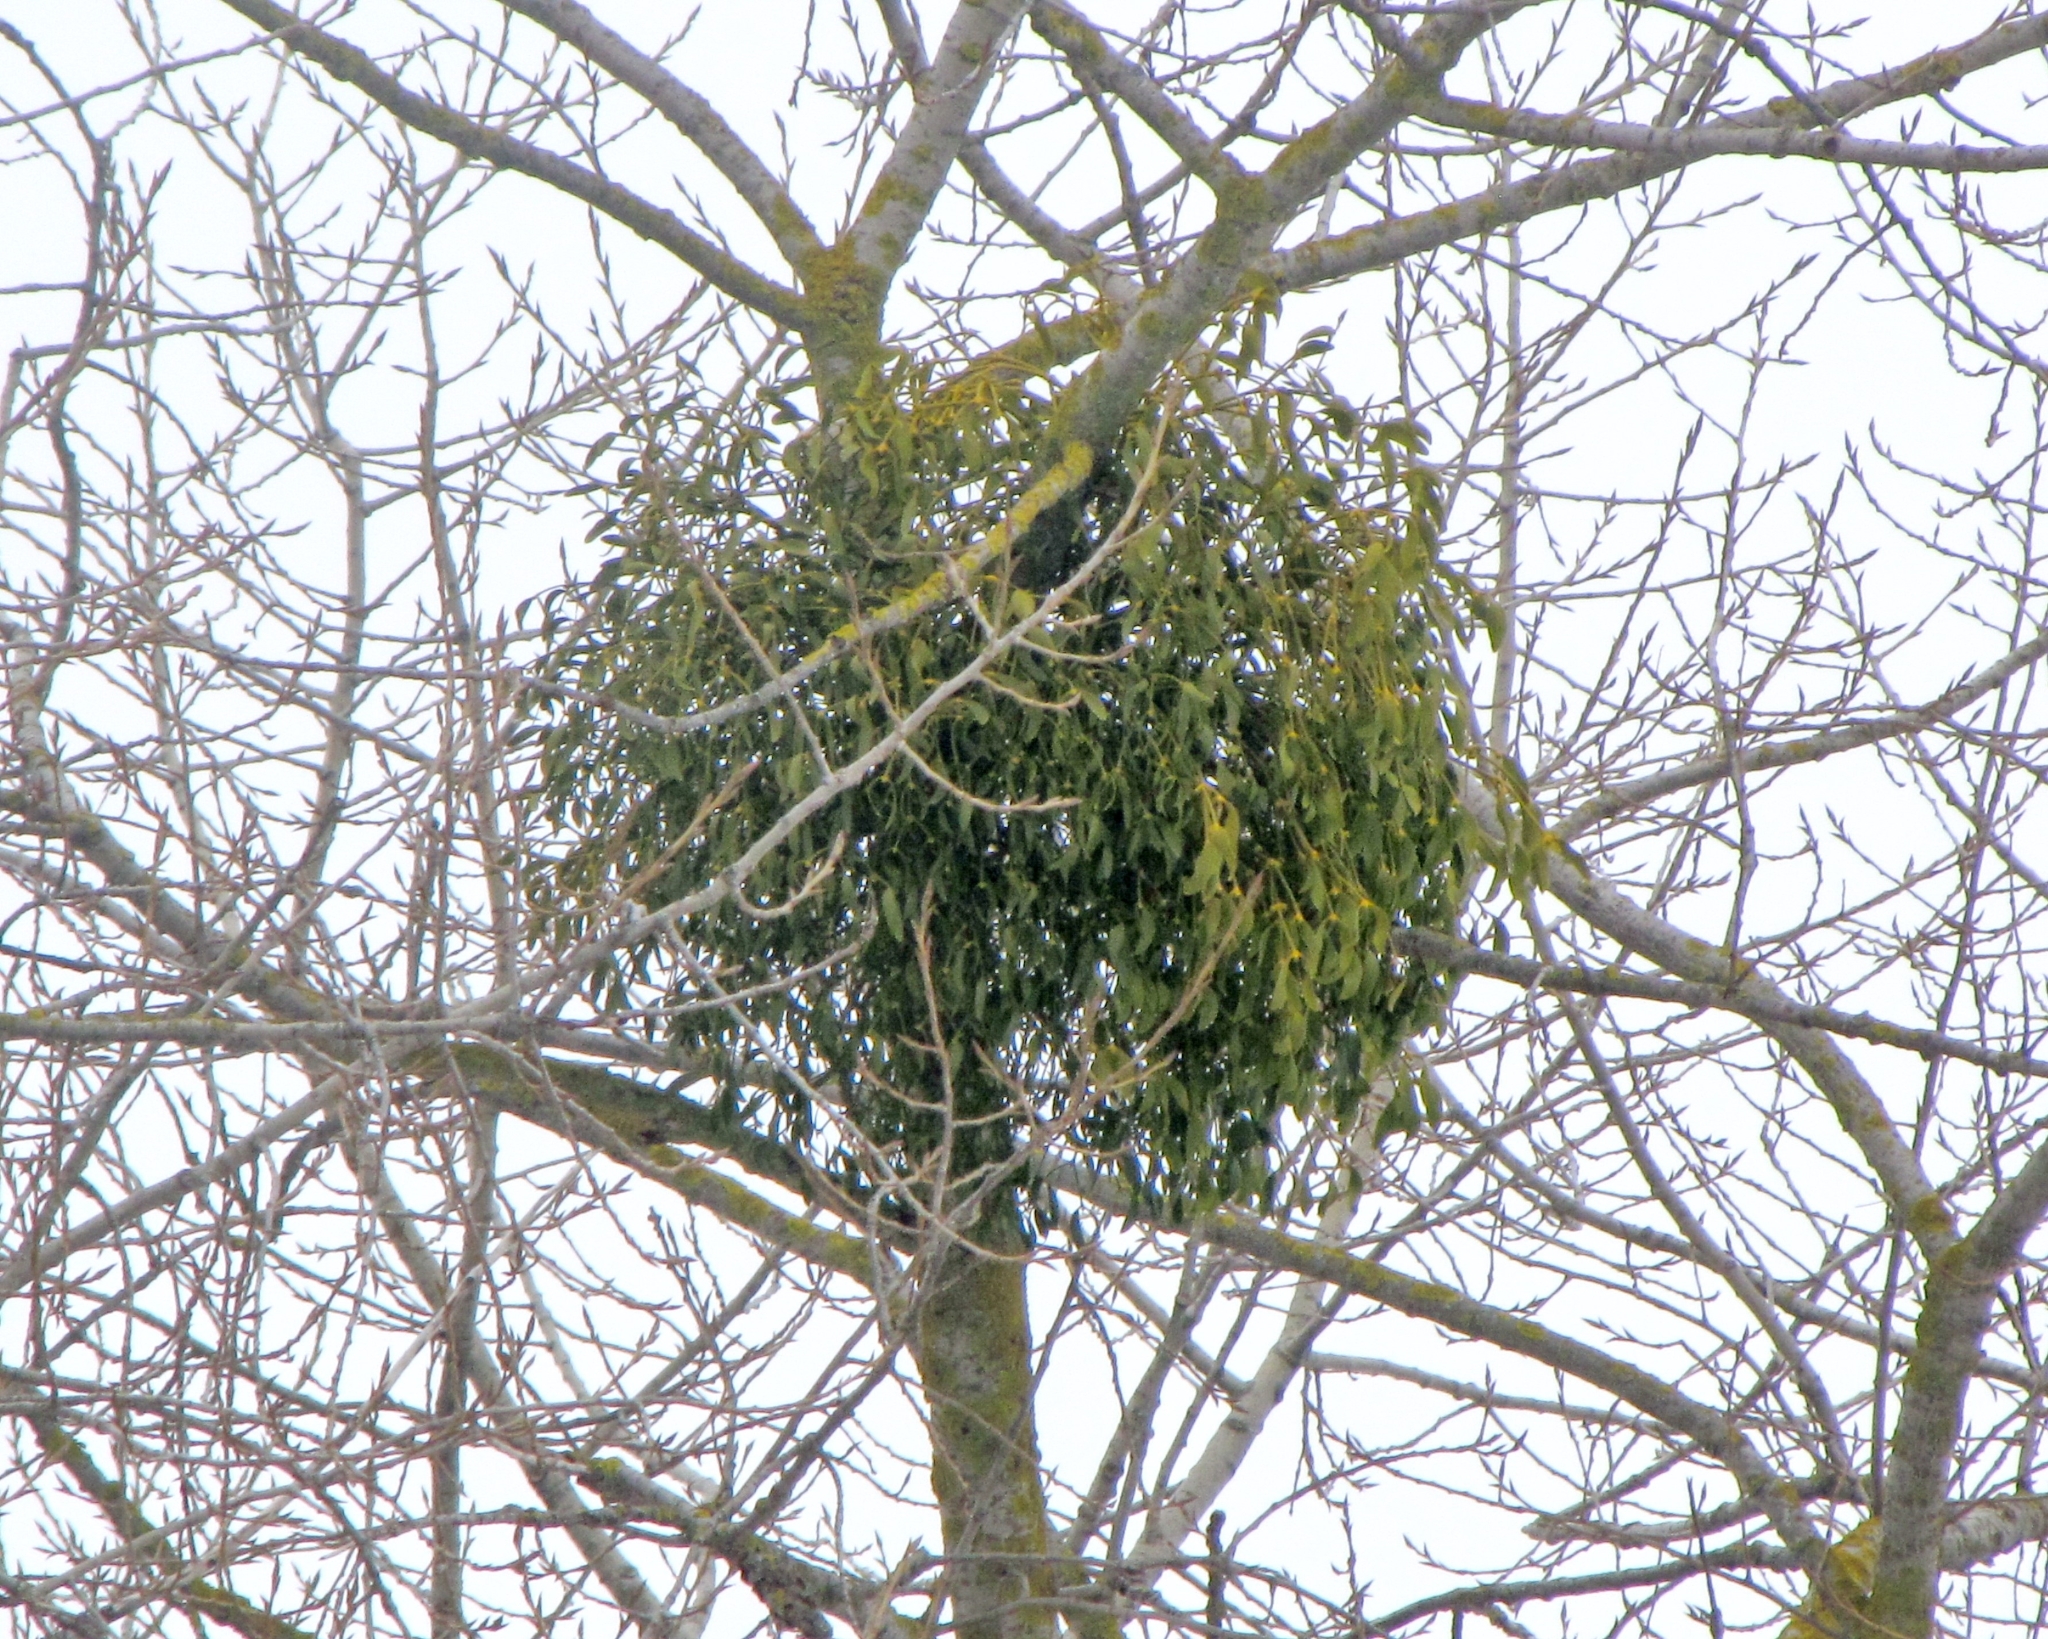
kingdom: Plantae
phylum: Tracheophyta
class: Magnoliopsida
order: Santalales
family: Viscaceae
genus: Viscum
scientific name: Viscum album
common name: Mistletoe
